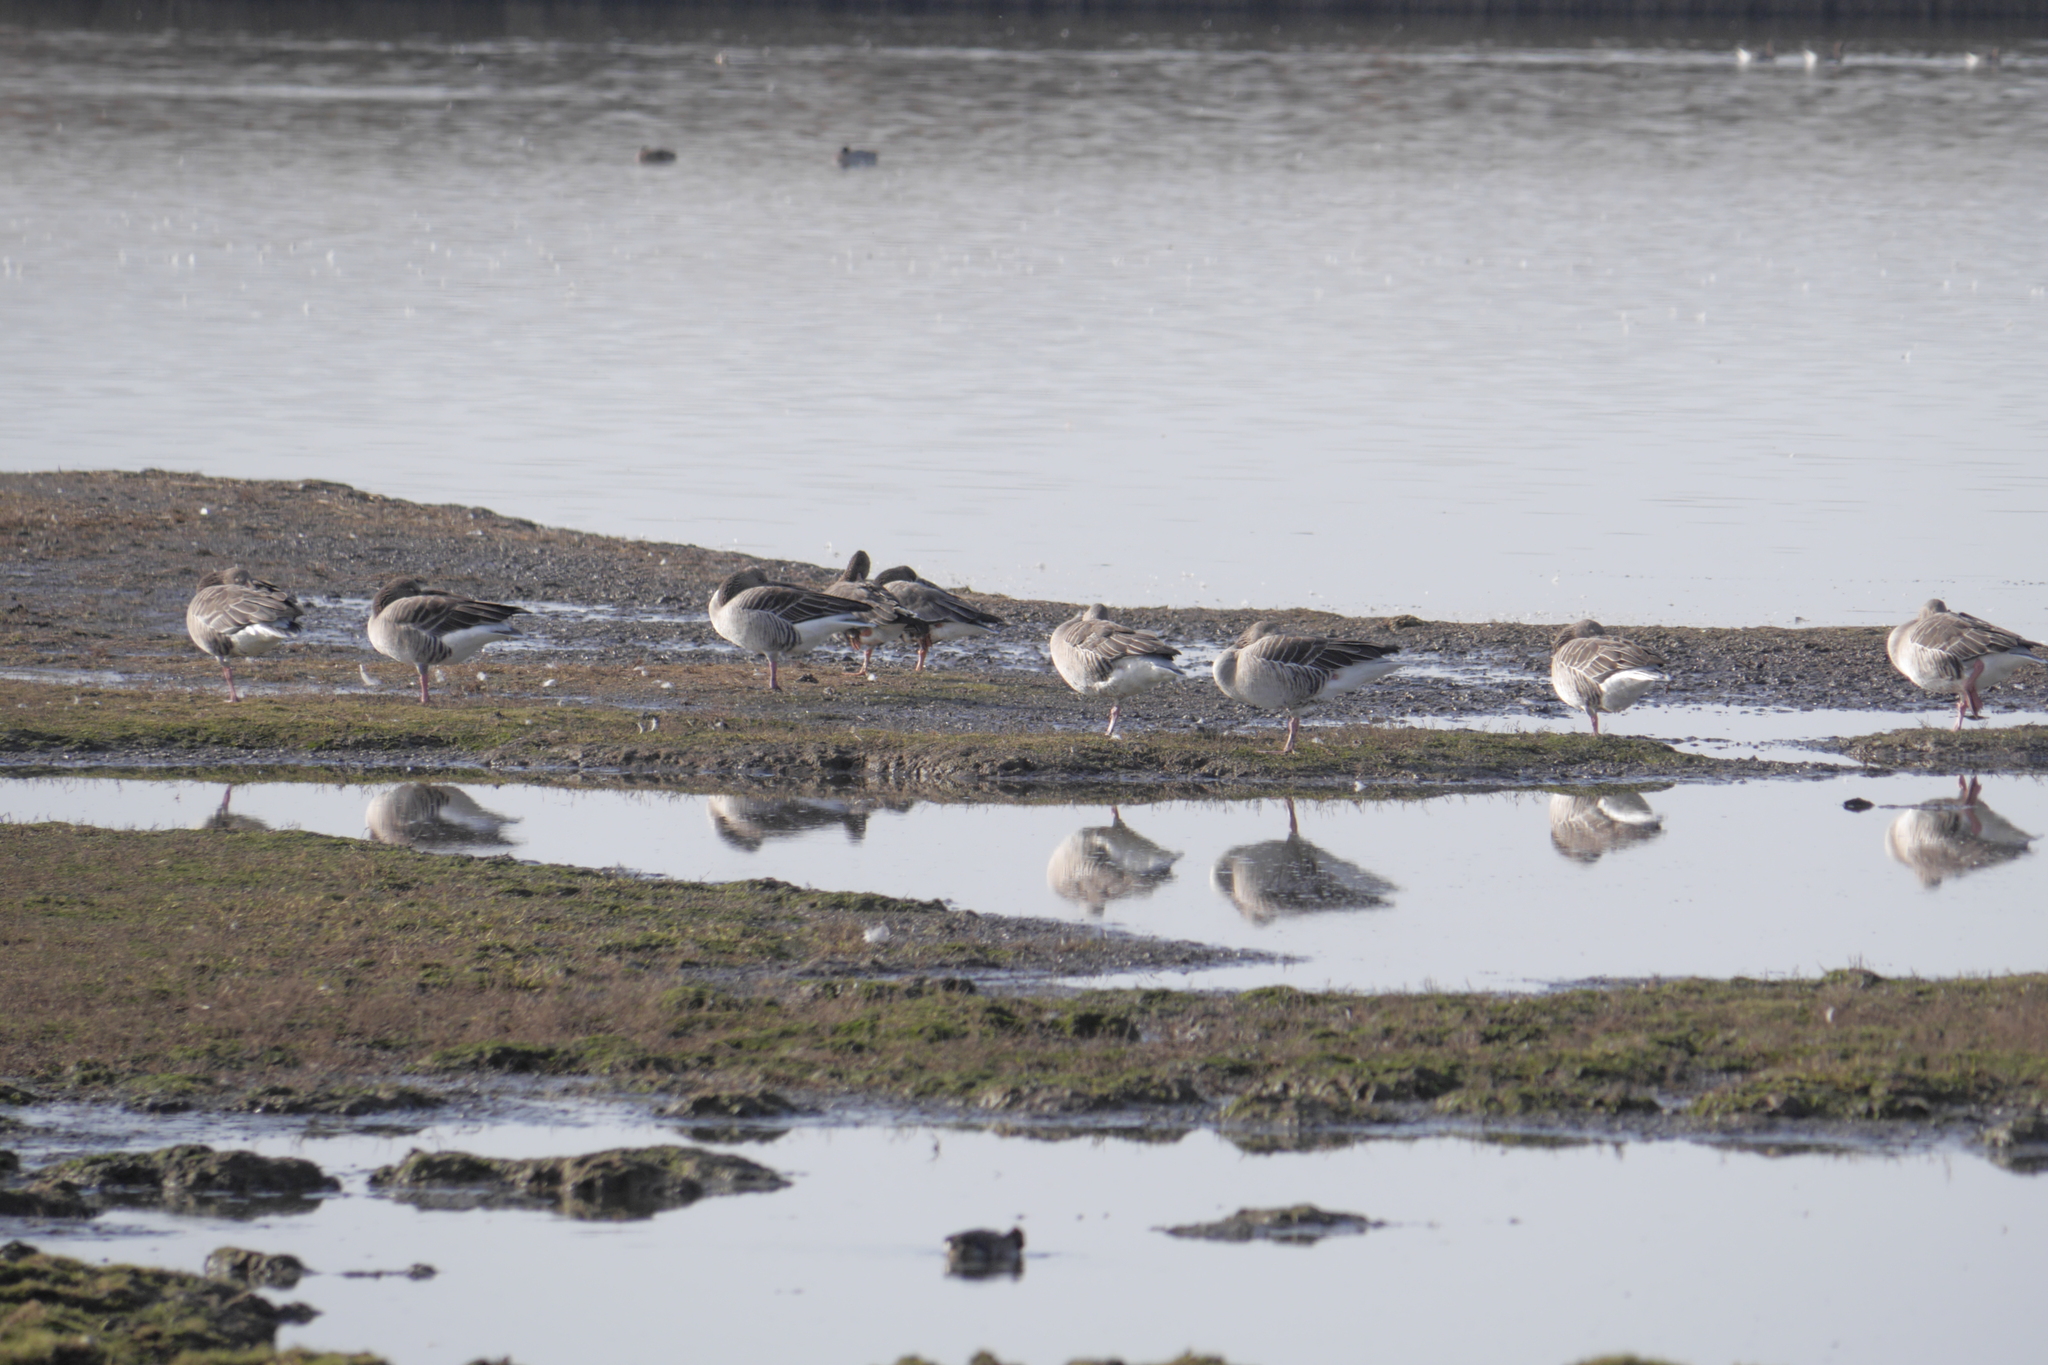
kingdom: Animalia
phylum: Chordata
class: Aves
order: Anseriformes
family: Anatidae
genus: Anser
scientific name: Anser anser
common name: Greylag goose
